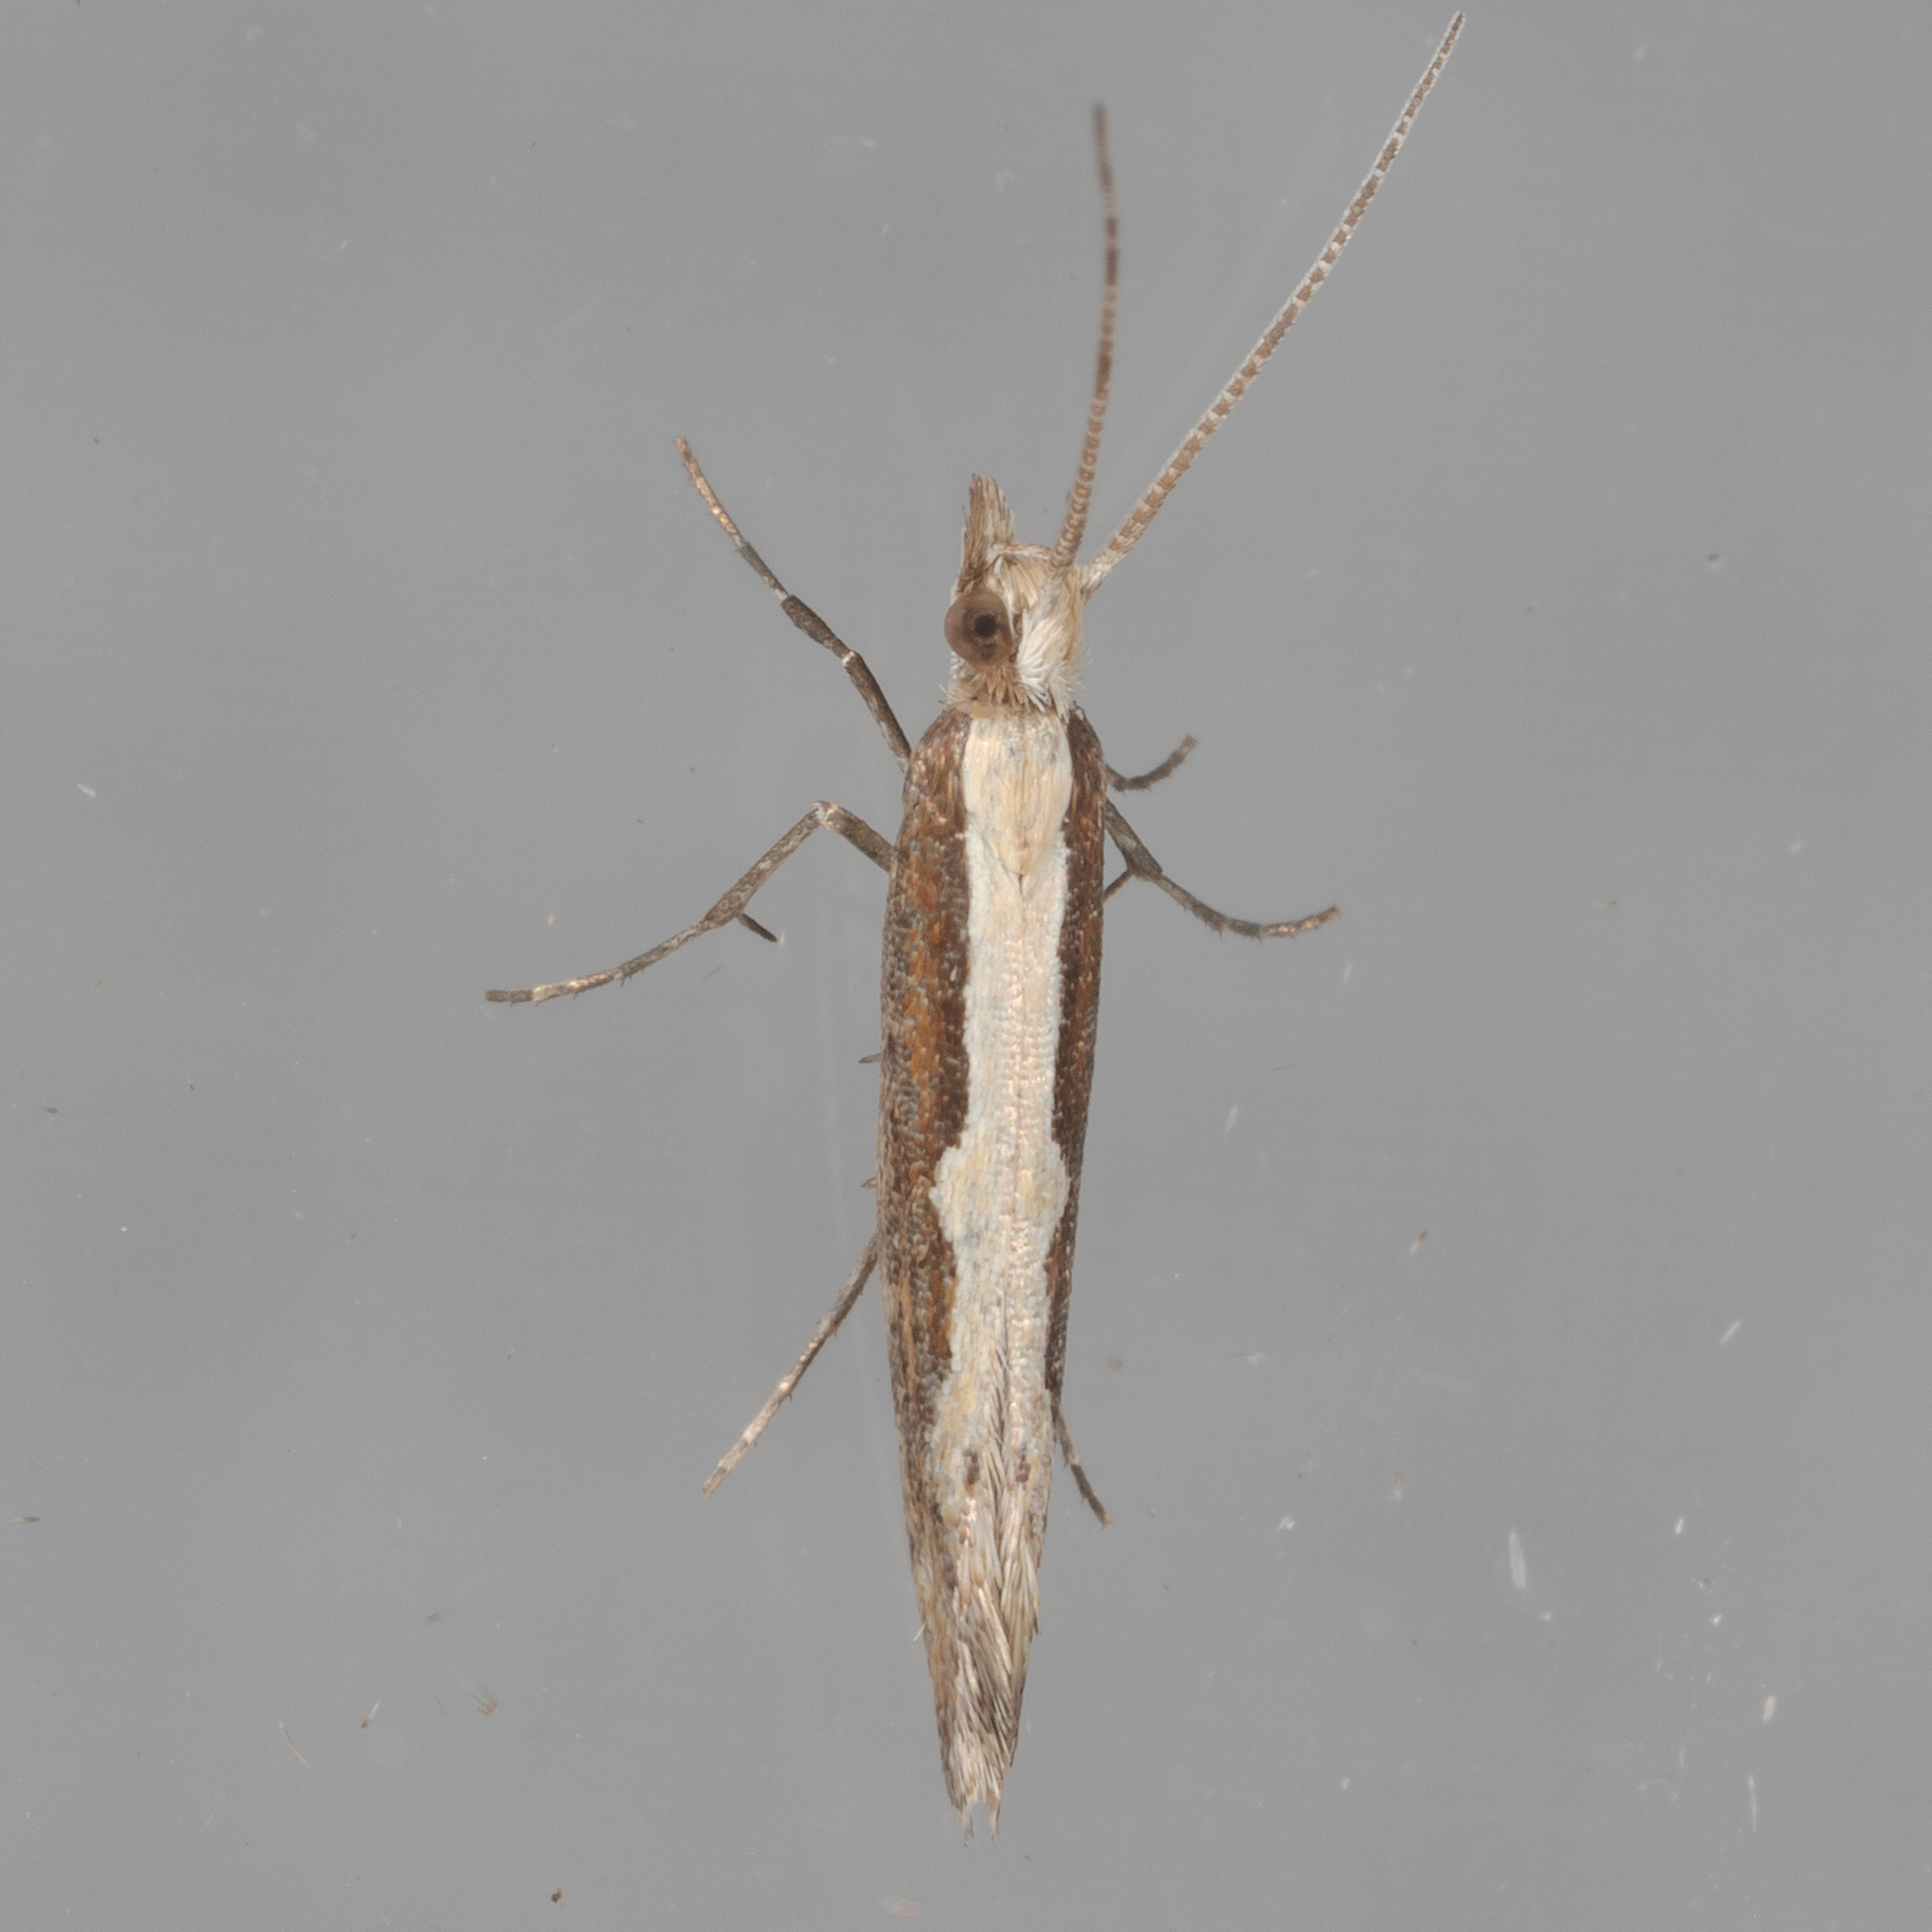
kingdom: Animalia
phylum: Arthropoda
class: Insecta
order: Lepidoptera
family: Plutellidae
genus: Plutella
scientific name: Plutella xylostella
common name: Diamond-back moth
